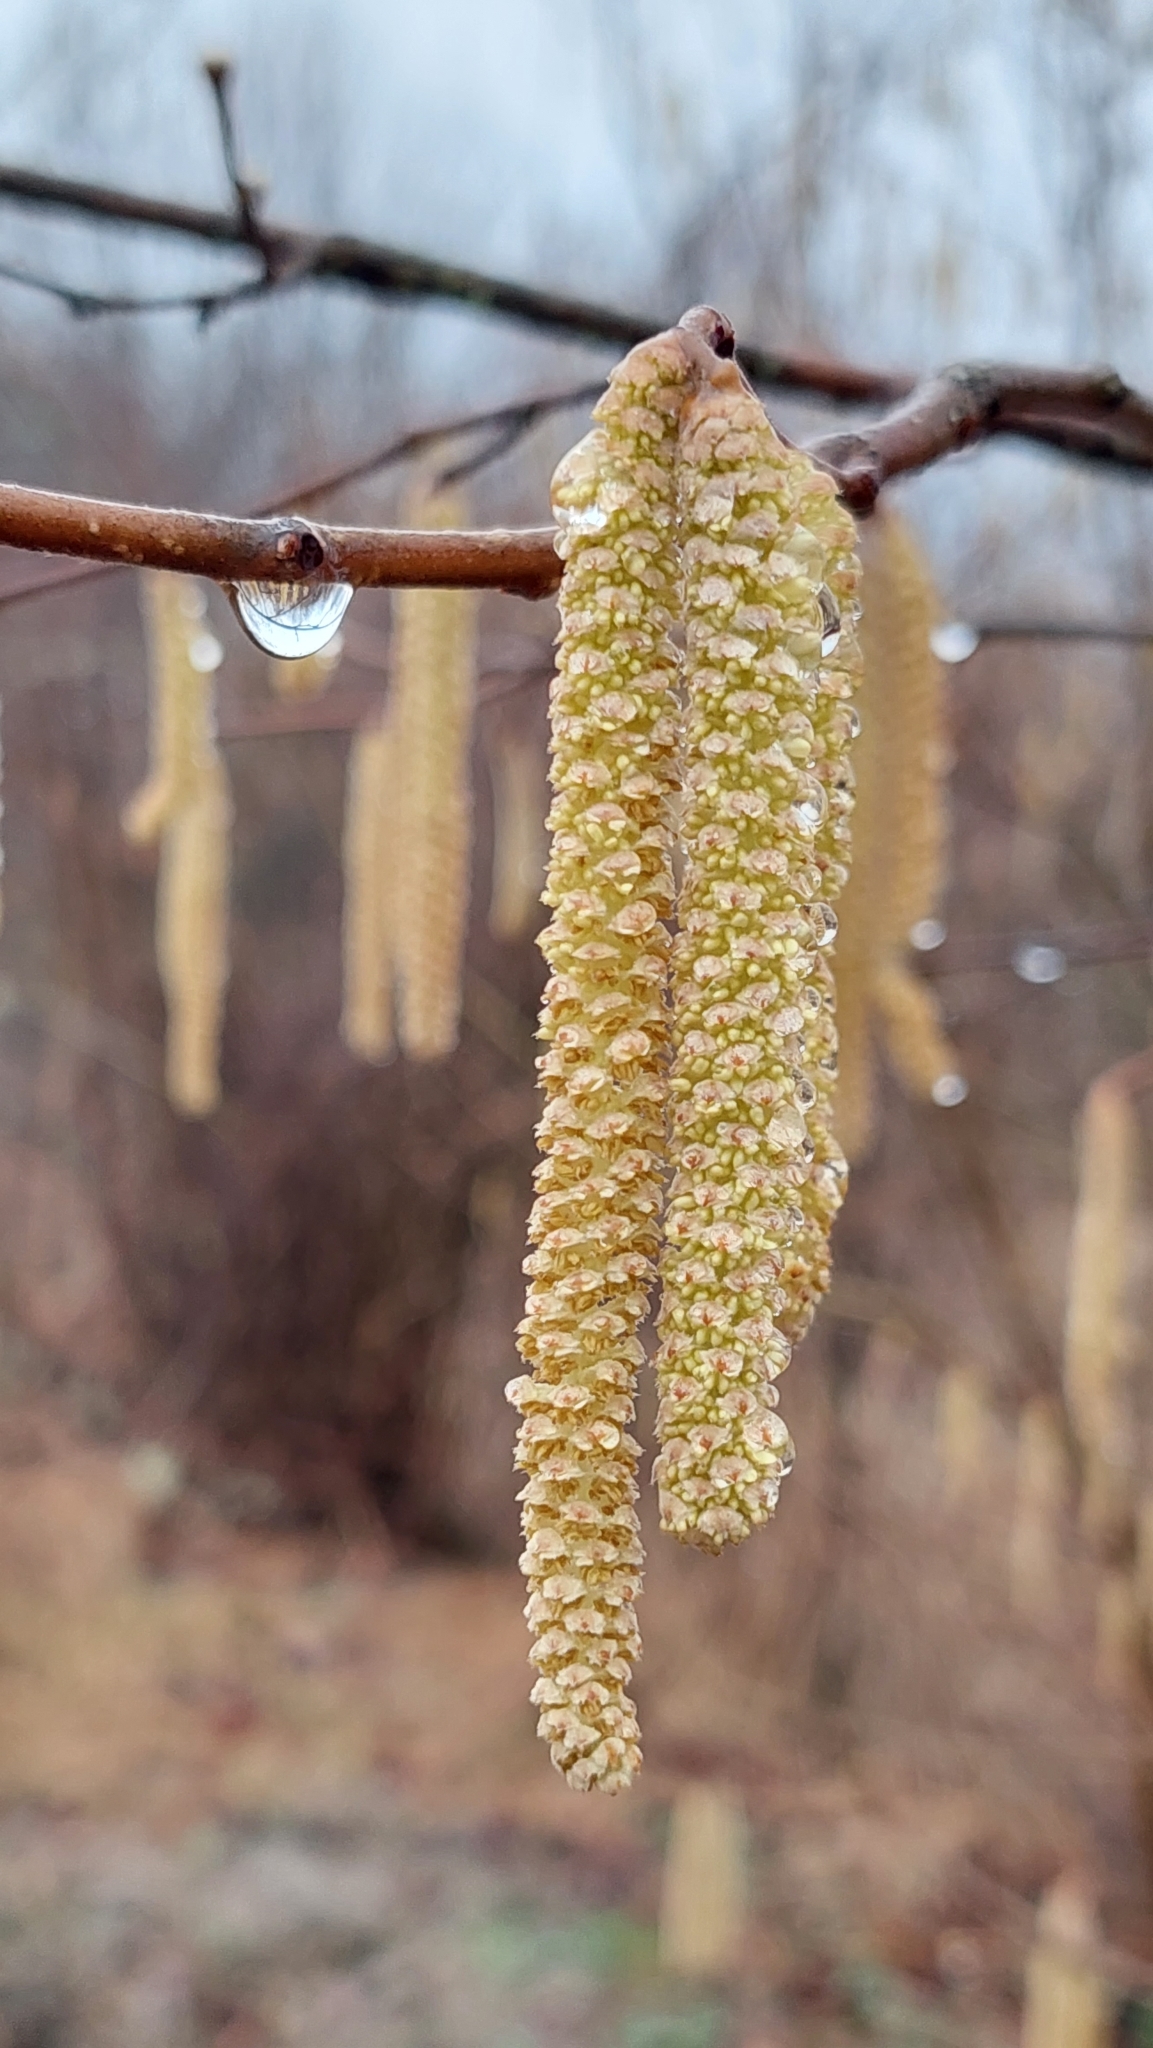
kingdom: Plantae
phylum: Tracheophyta
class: Magnoliopsida
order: Fagales
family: Betulaceae
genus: Corylus
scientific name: Corylus avellana
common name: European hazel
